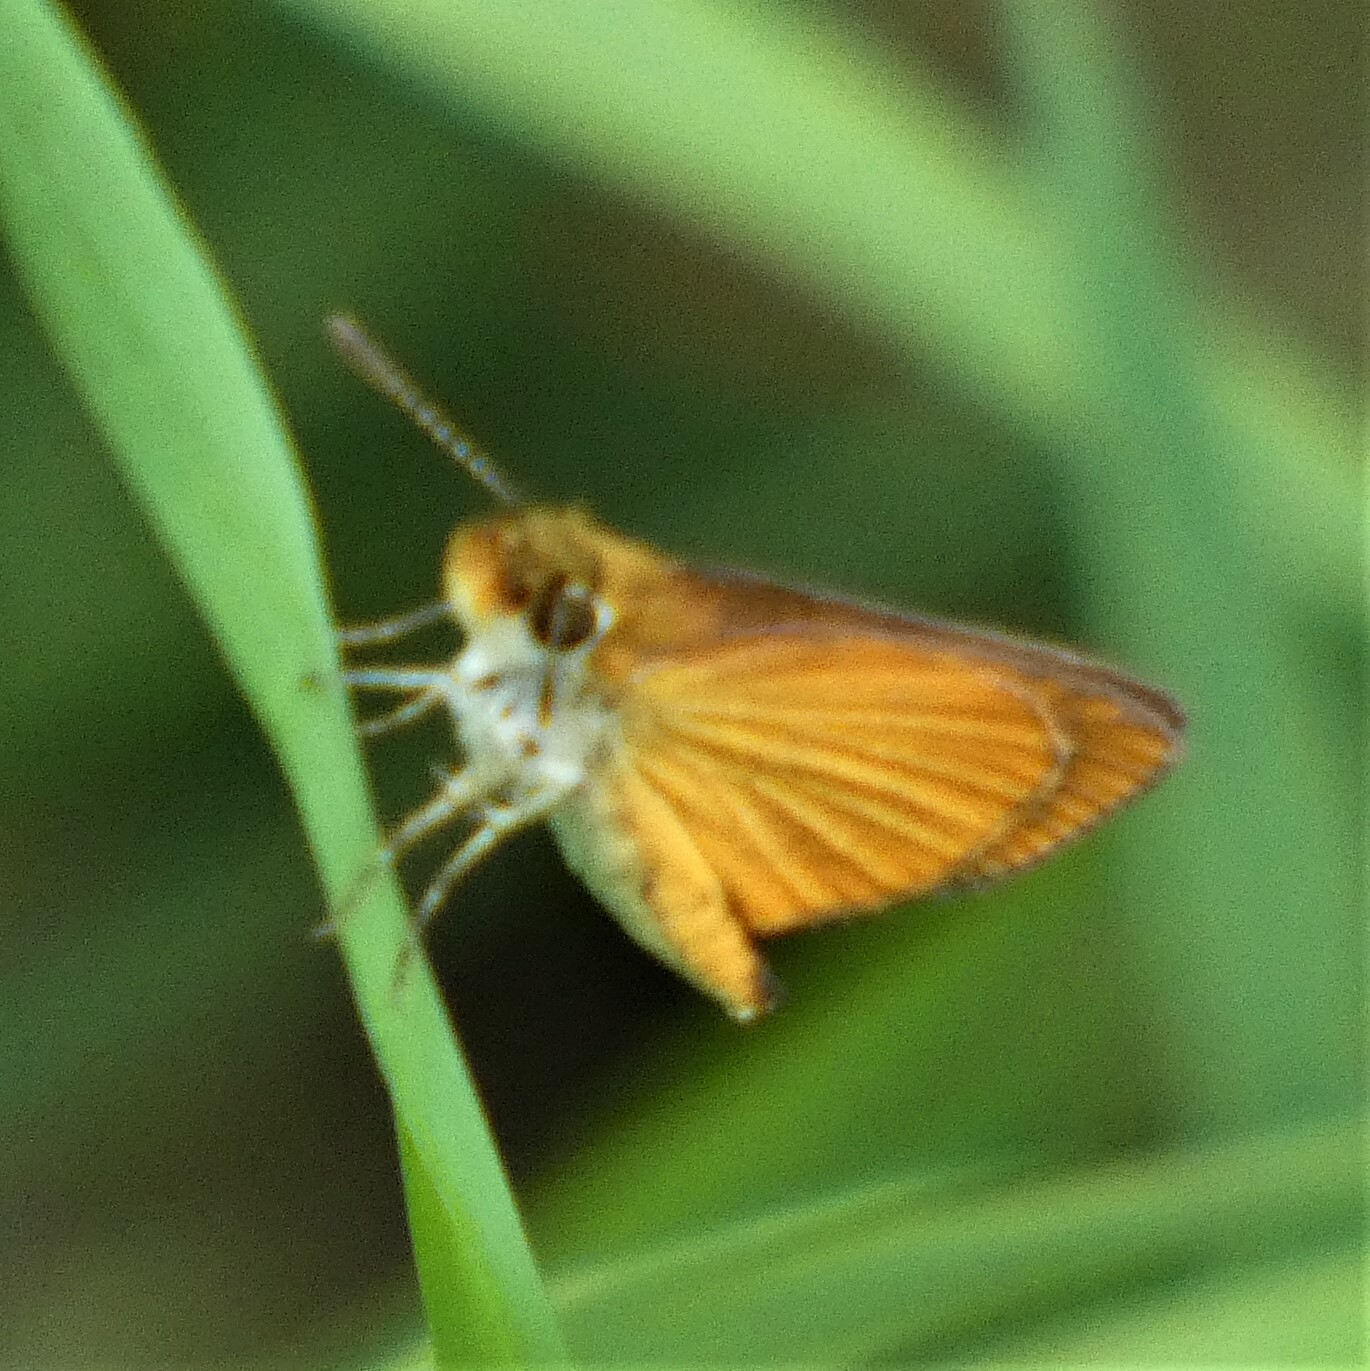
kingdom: Animalia
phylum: Arthropoda
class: Insecta
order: Lepidoptera
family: Hesperiidae
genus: Ancyloxypha
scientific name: Ancyloxypha numitor
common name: Least skipper
